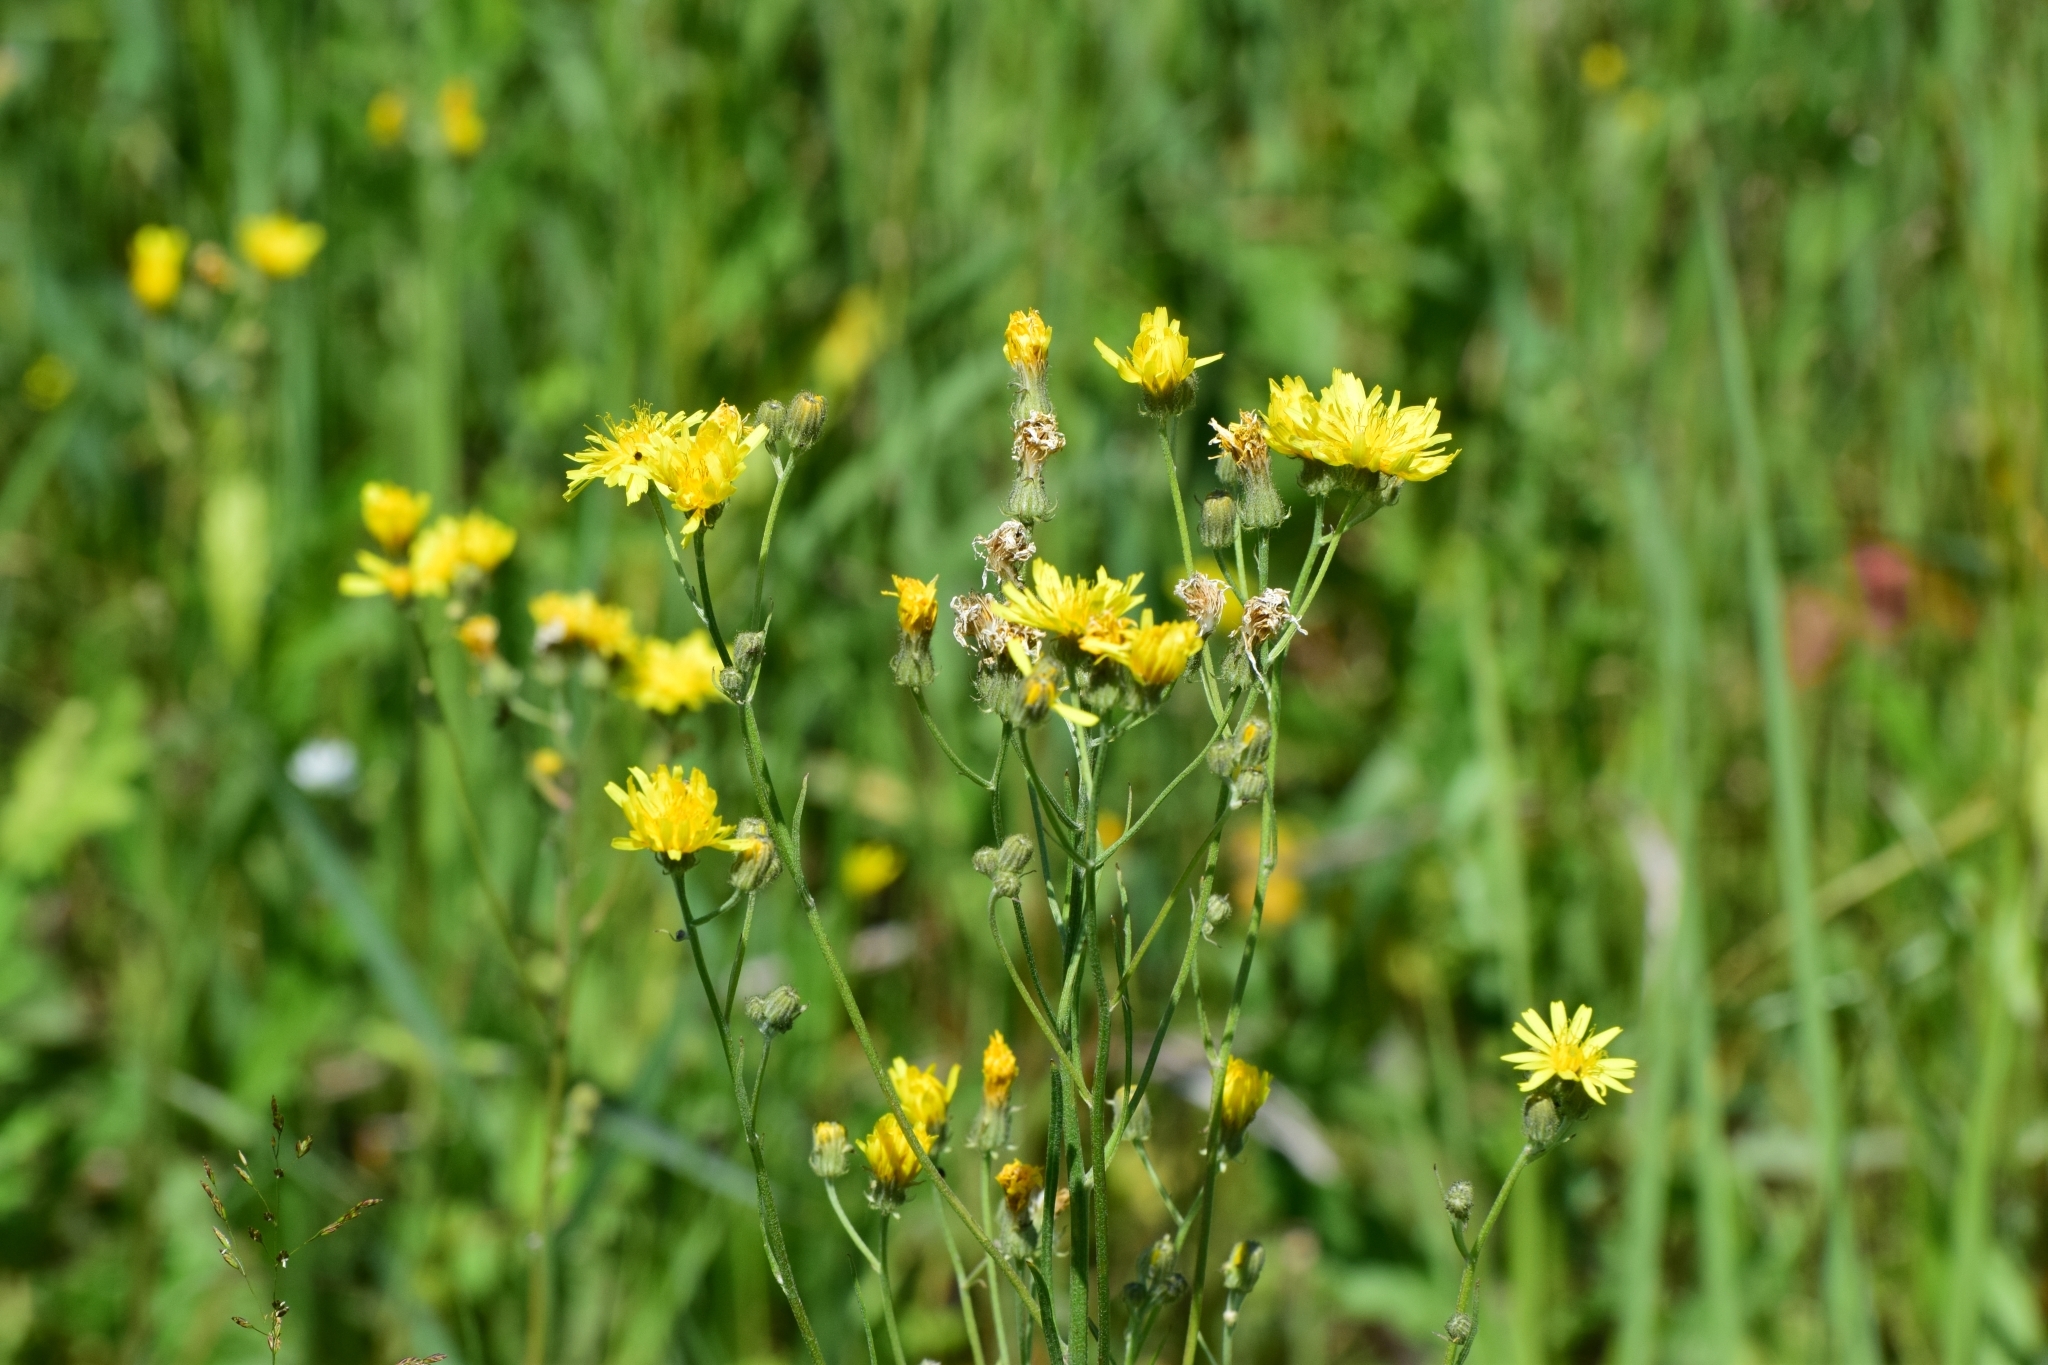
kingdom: Plantae
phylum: Tracheophyta
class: Magnoliopsida
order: Asterales
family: Asteraceae
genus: Crepis
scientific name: Crepis tectorum
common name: Narrow-leaved hawk's-beard
